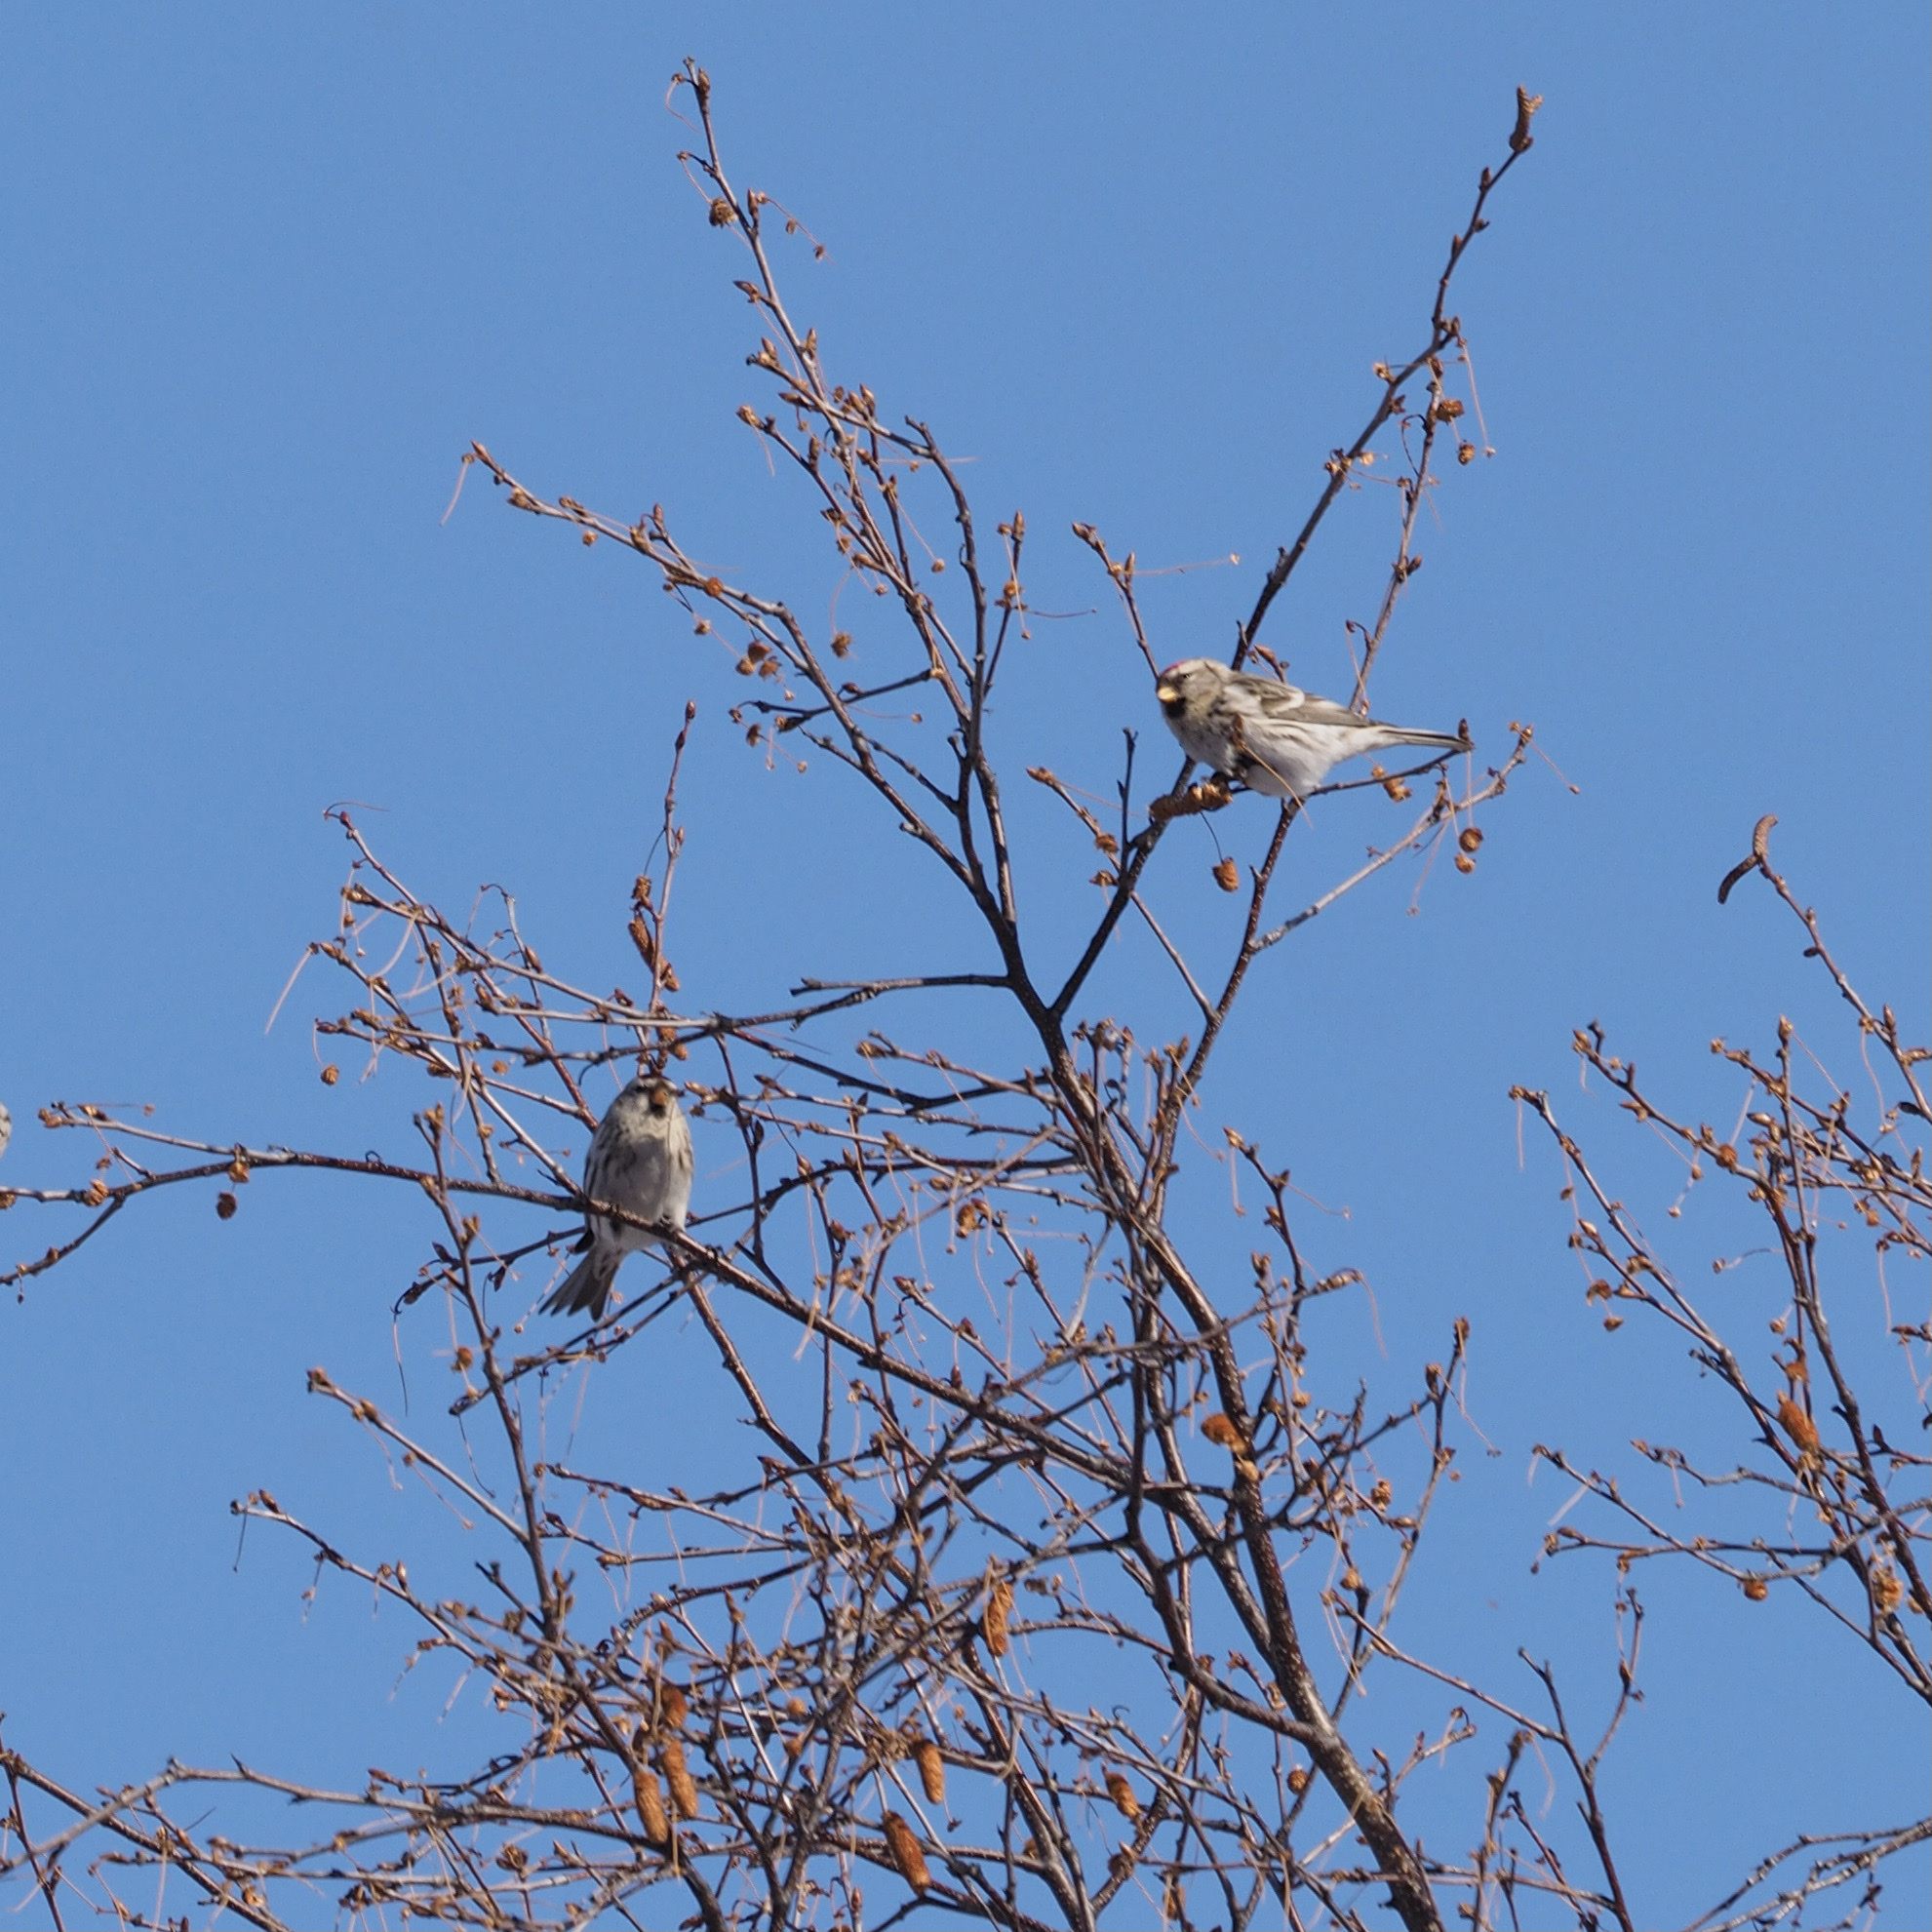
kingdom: Animalia
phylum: Chordata
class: Aves
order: Passeriformes
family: Fringillidae
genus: Acanthis
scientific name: Acanthis flammea
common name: Common redpoll
